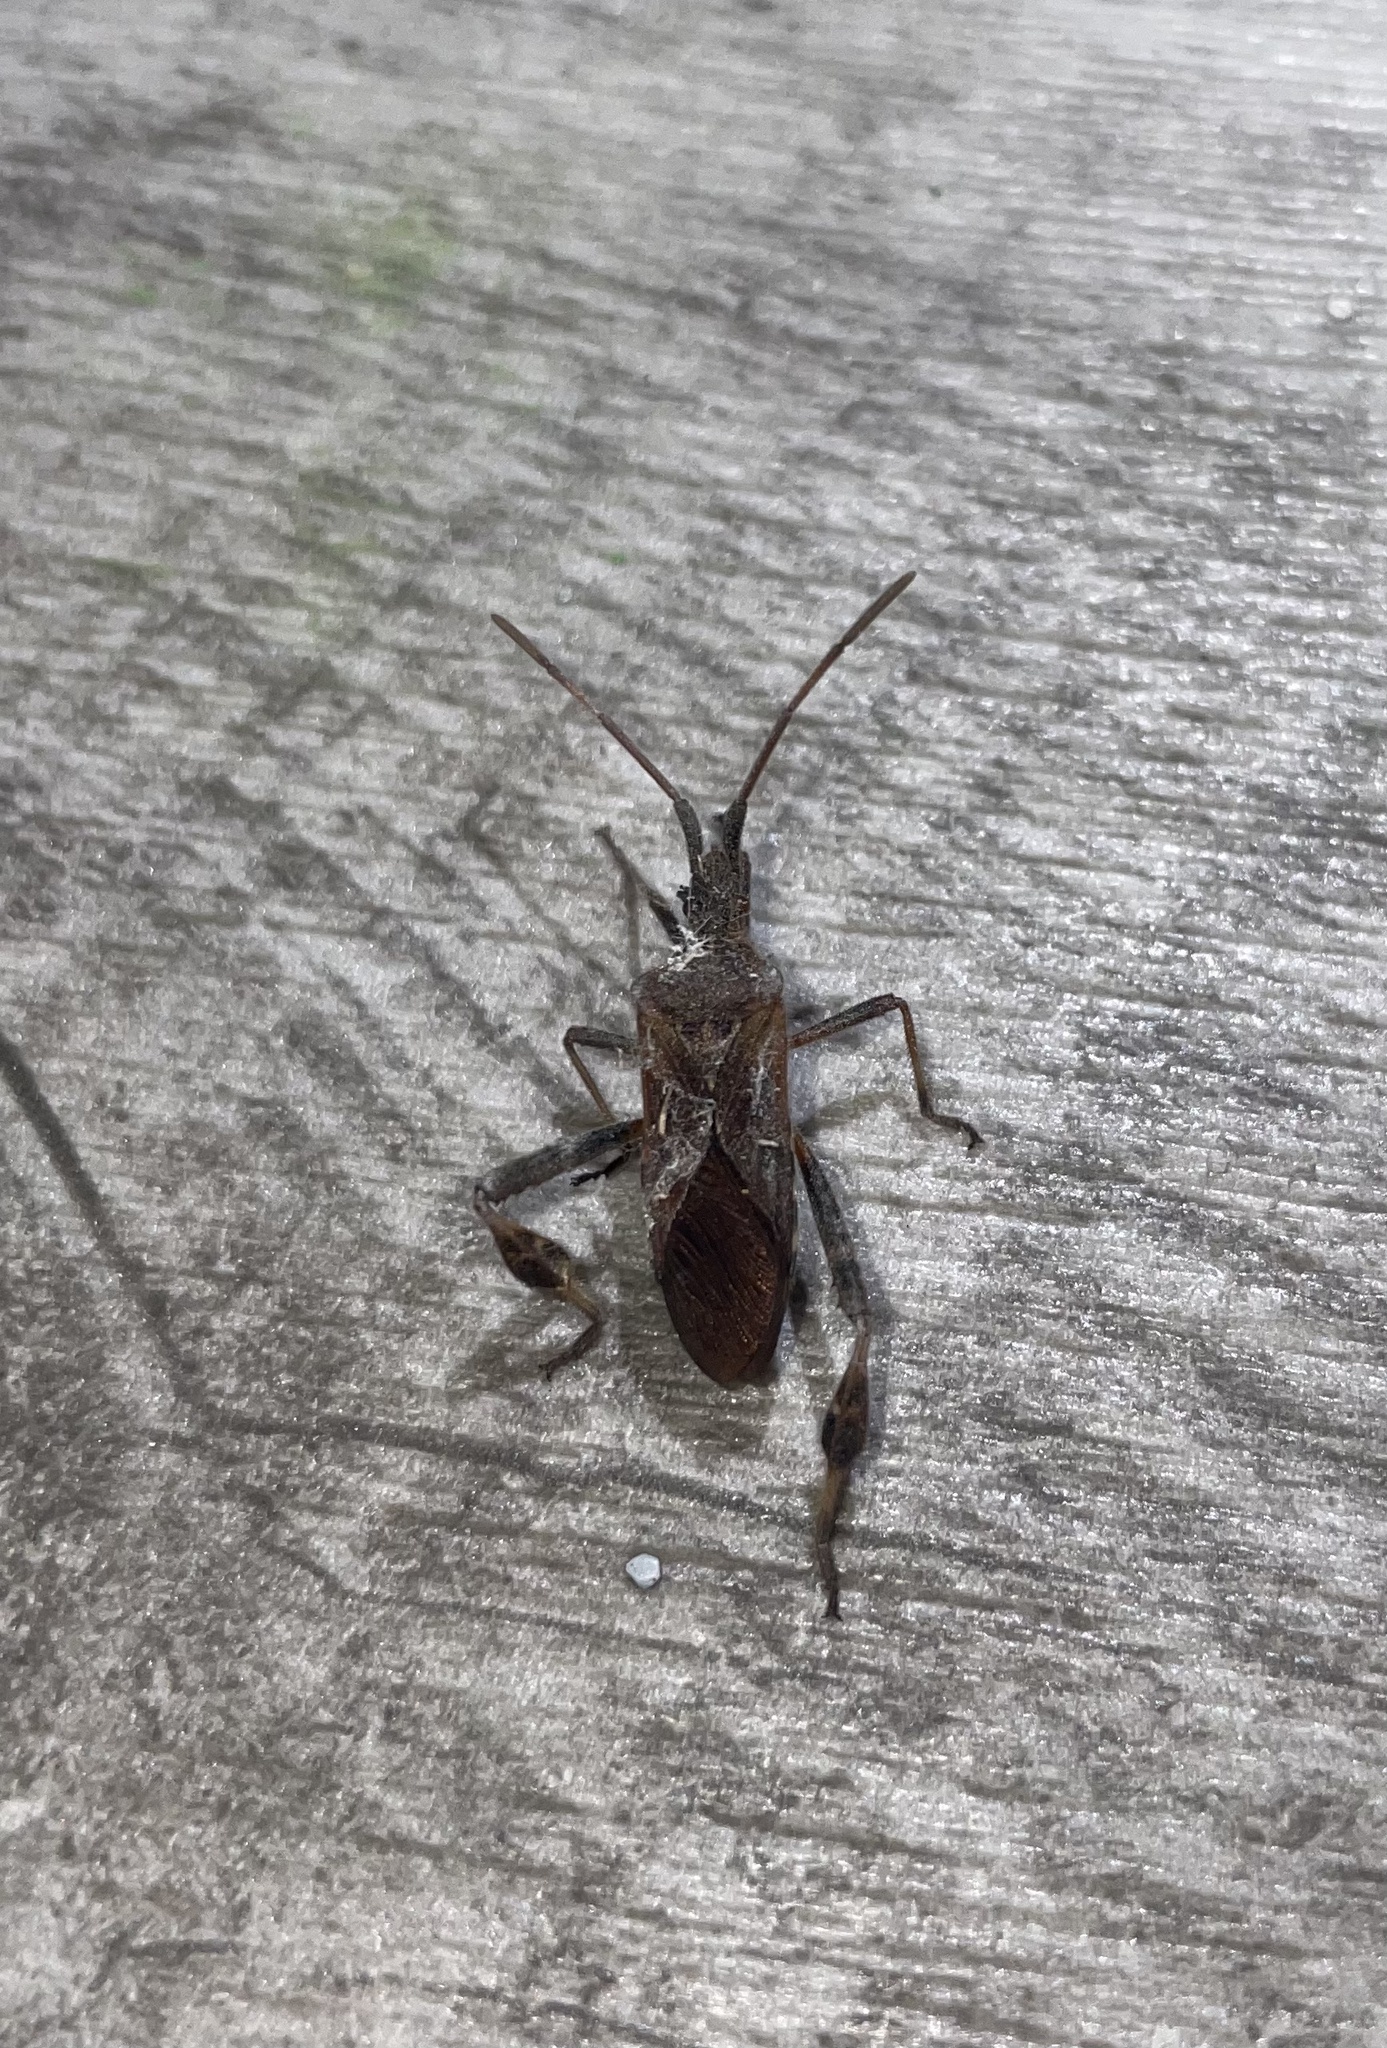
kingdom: Animalia
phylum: Arthropoda
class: Insecta
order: Hemiptera
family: Coreidae
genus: Leptoglossus
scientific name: Leptoglossus occidentalis
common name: Western conifer-seed bug
